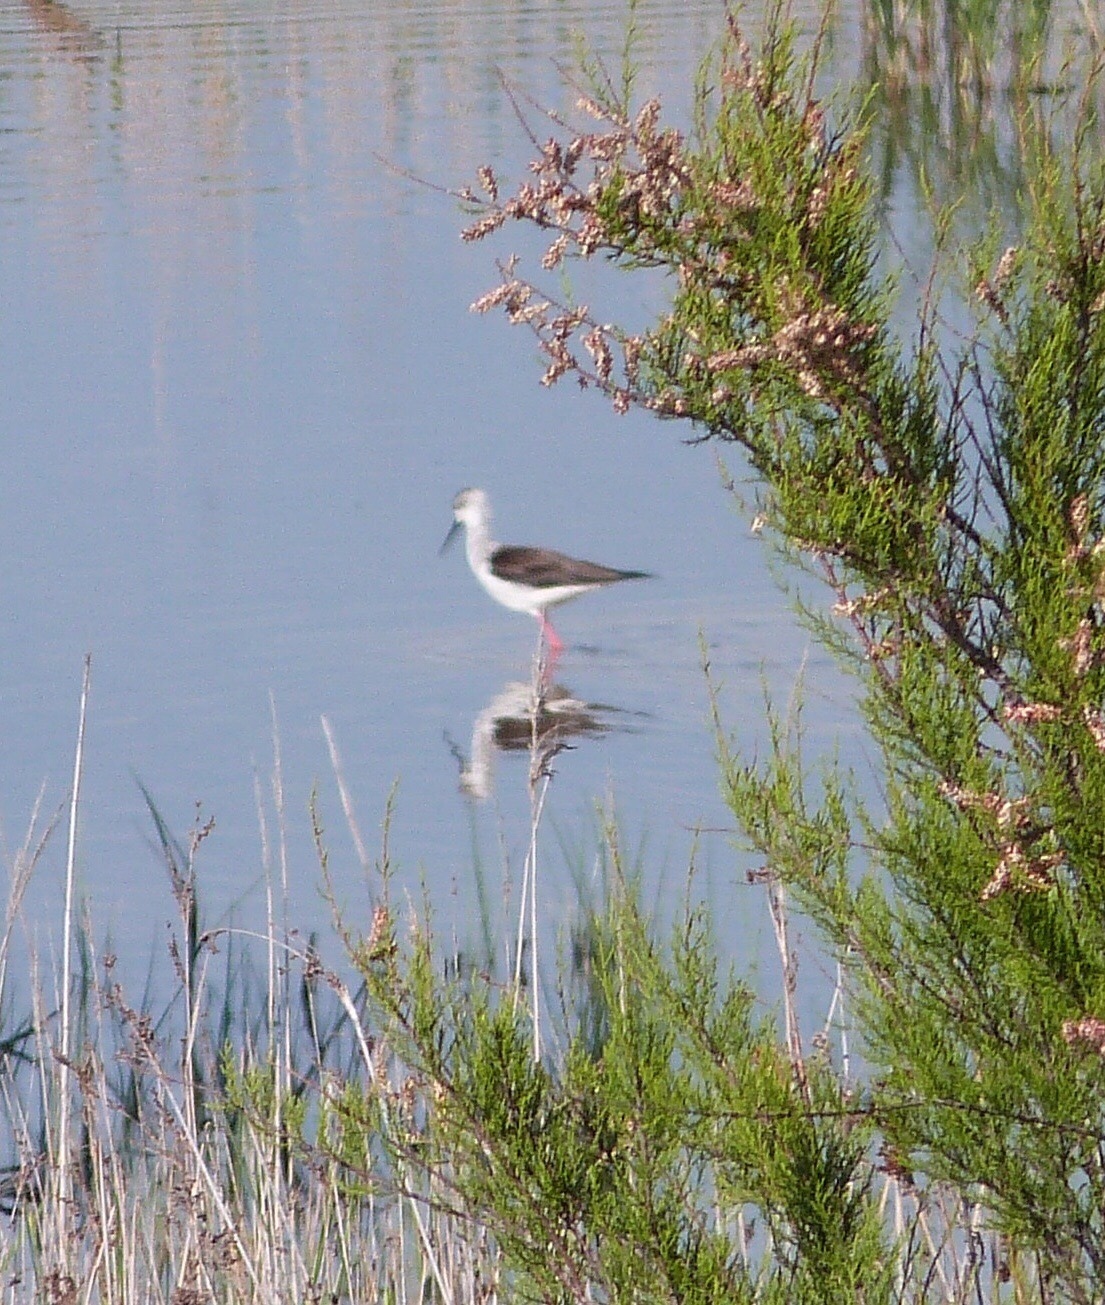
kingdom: Animalia
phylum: Chordata
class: Aves
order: Charadriiformes
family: Recurvirostridae
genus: Himantopus
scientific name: Himantopus himantopus
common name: Black-winged stilt
